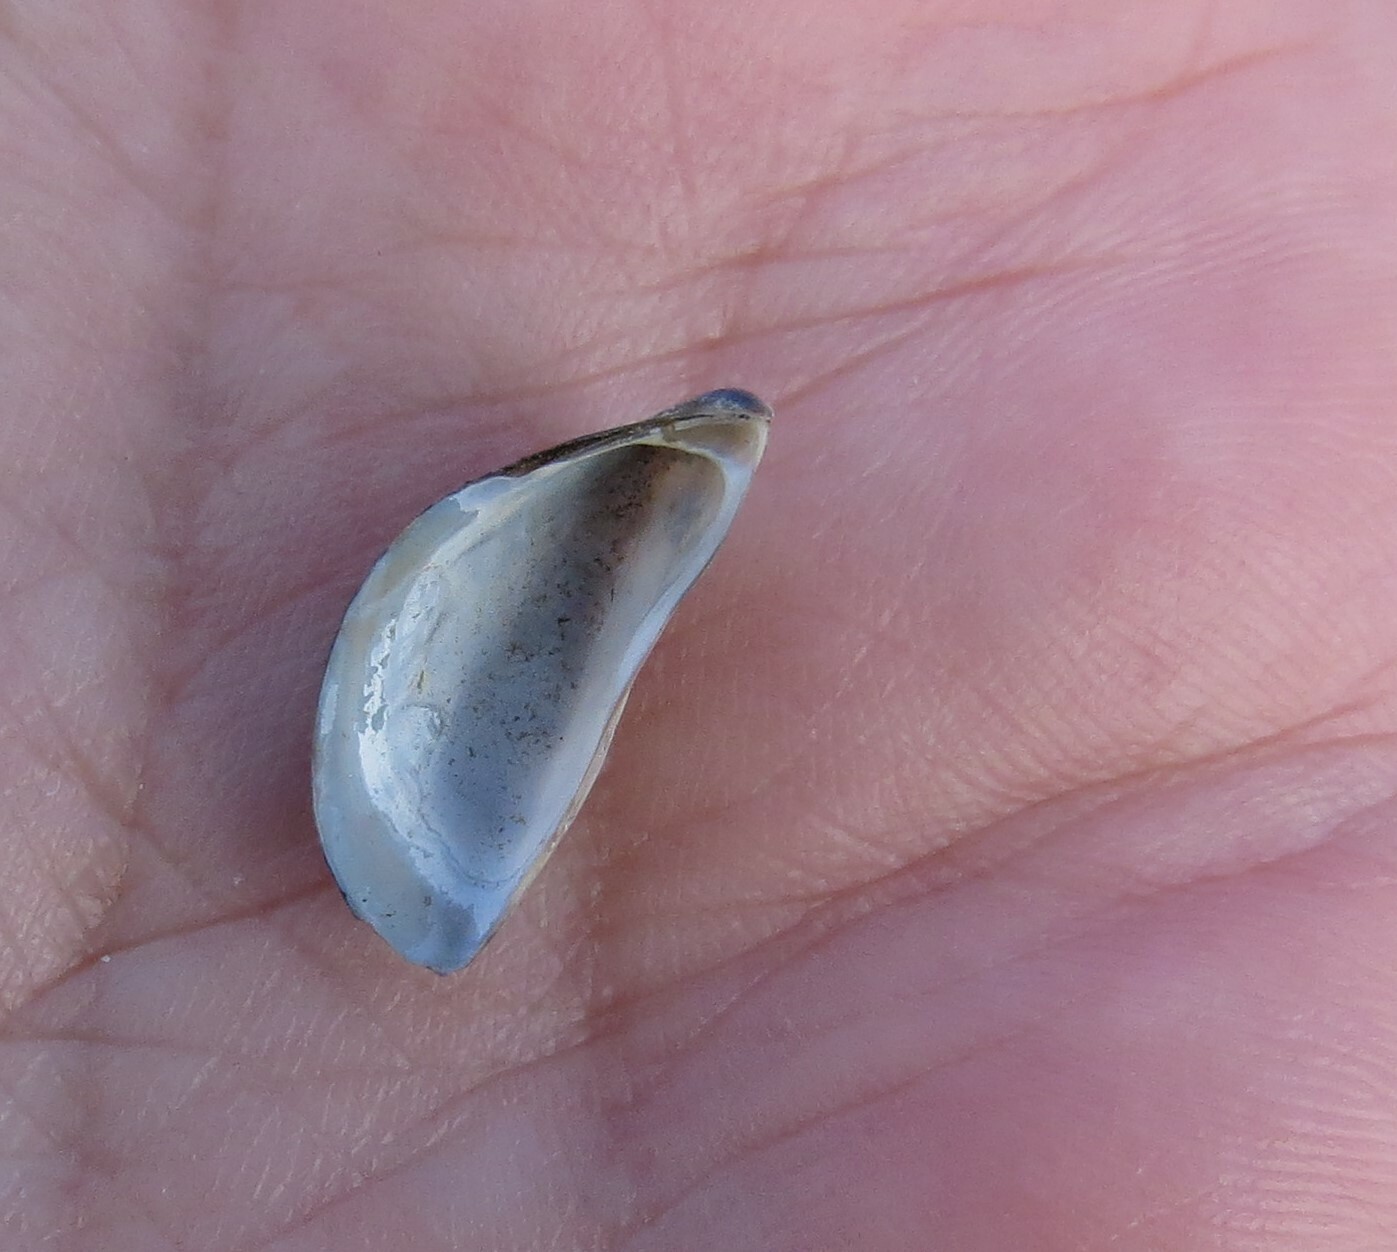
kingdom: Animalia
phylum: Mollusca
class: Bivalvia
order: Myida
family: Dreissenidae
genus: Dreissena
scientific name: Dreissena polymorpha
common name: Zebra mussel
